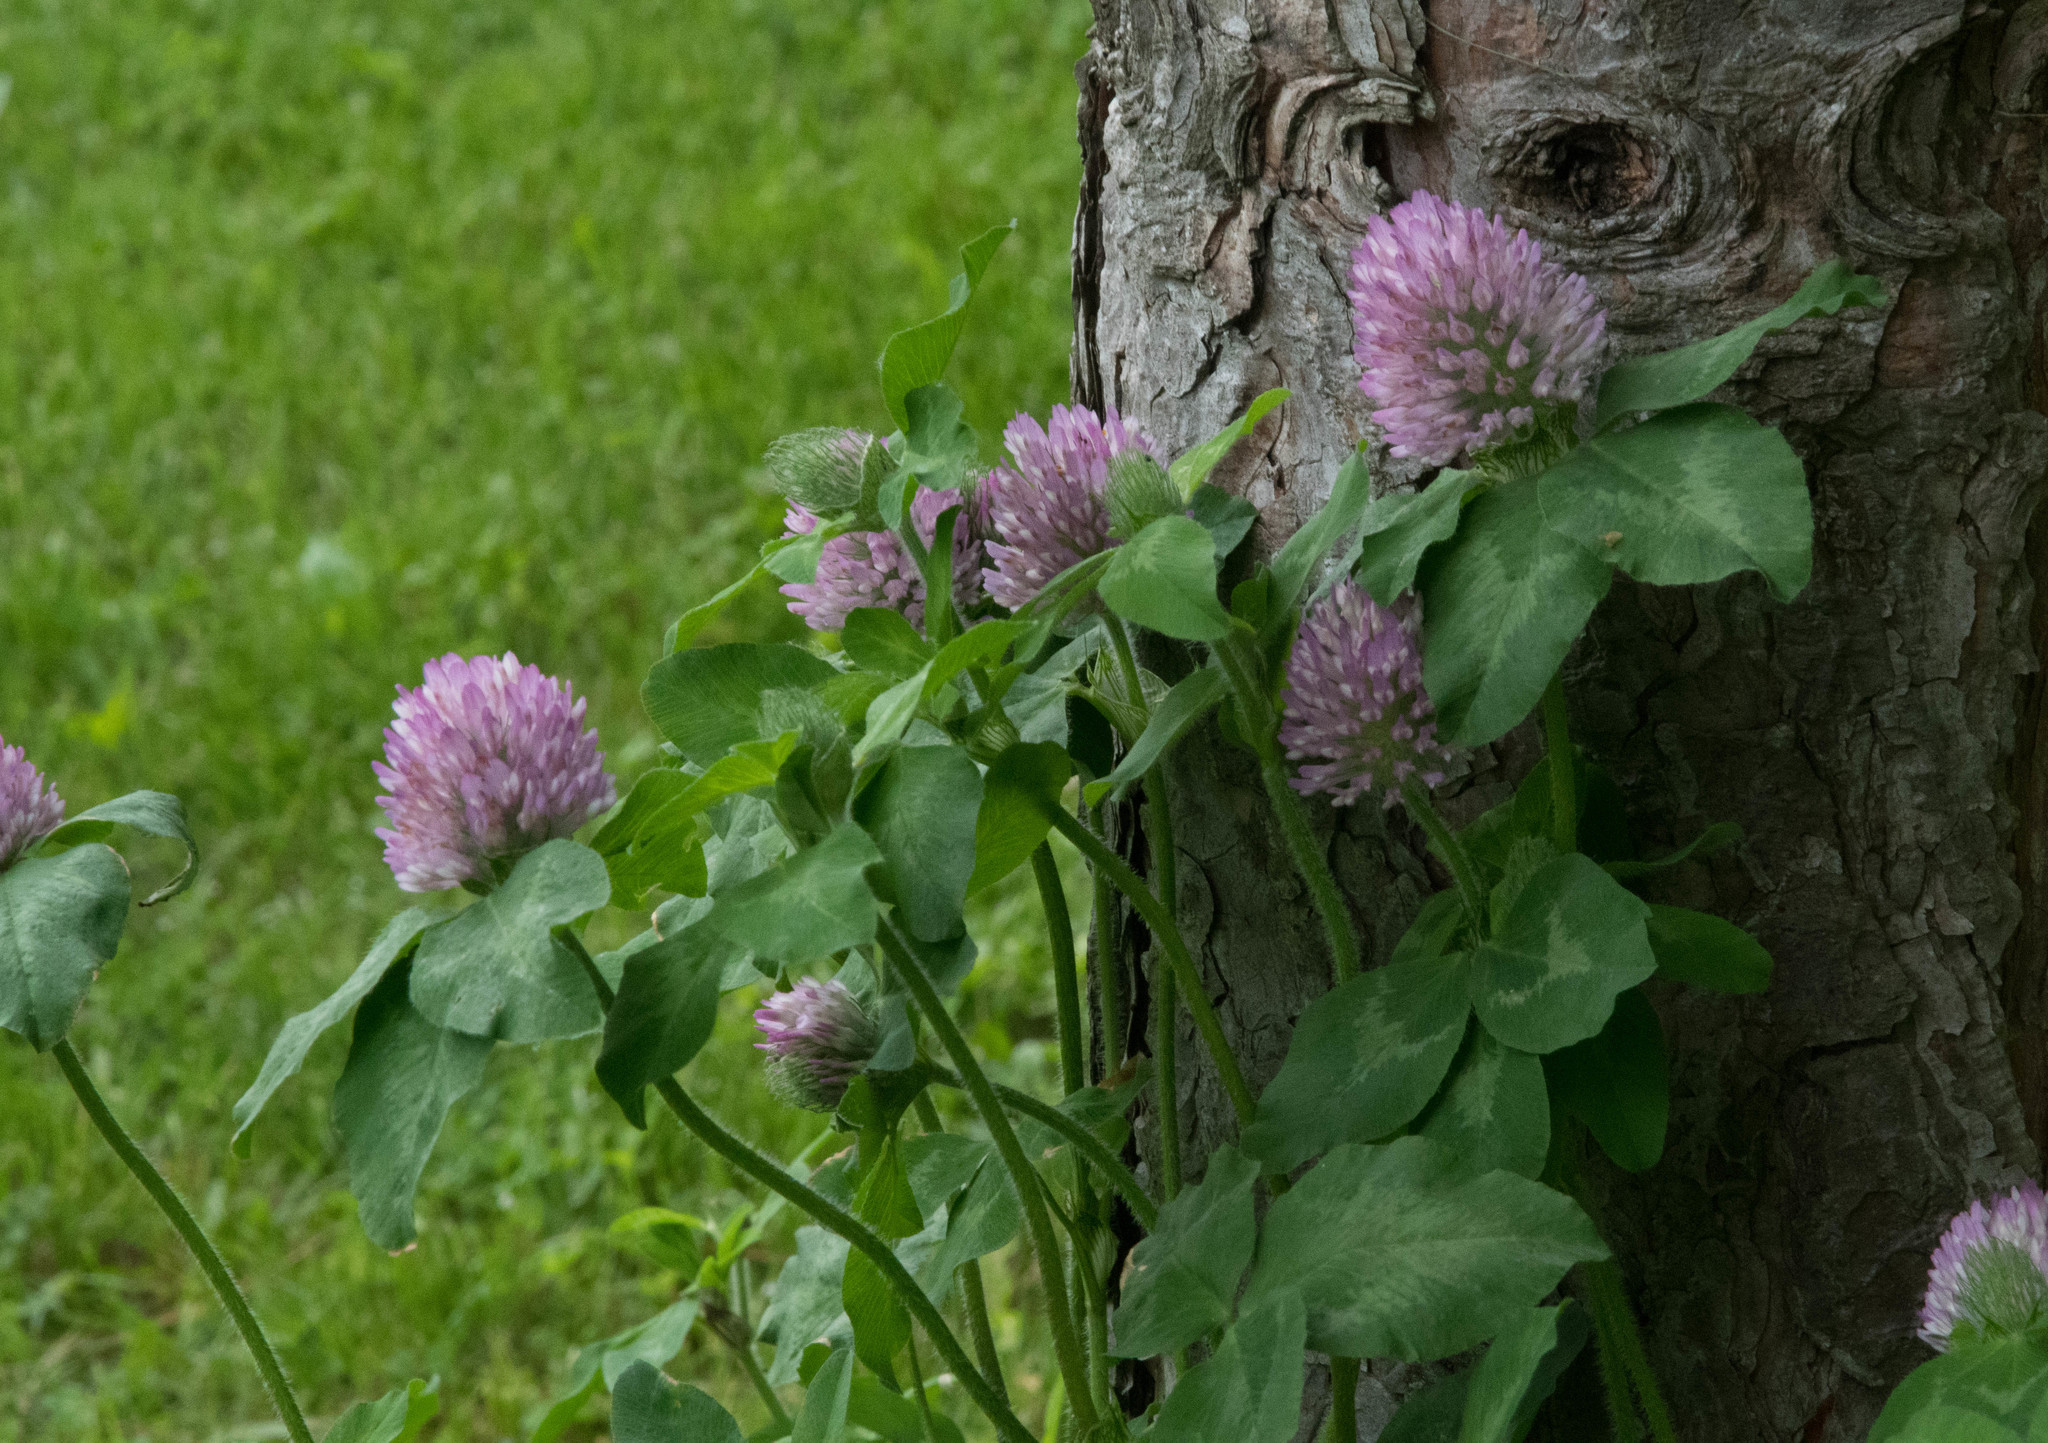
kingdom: Plantae
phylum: Tracheophyta
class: Magnoliopsida
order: Fabales
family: Fabaceae
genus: Trifolium
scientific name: Trifolium pratense
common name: Red clover
